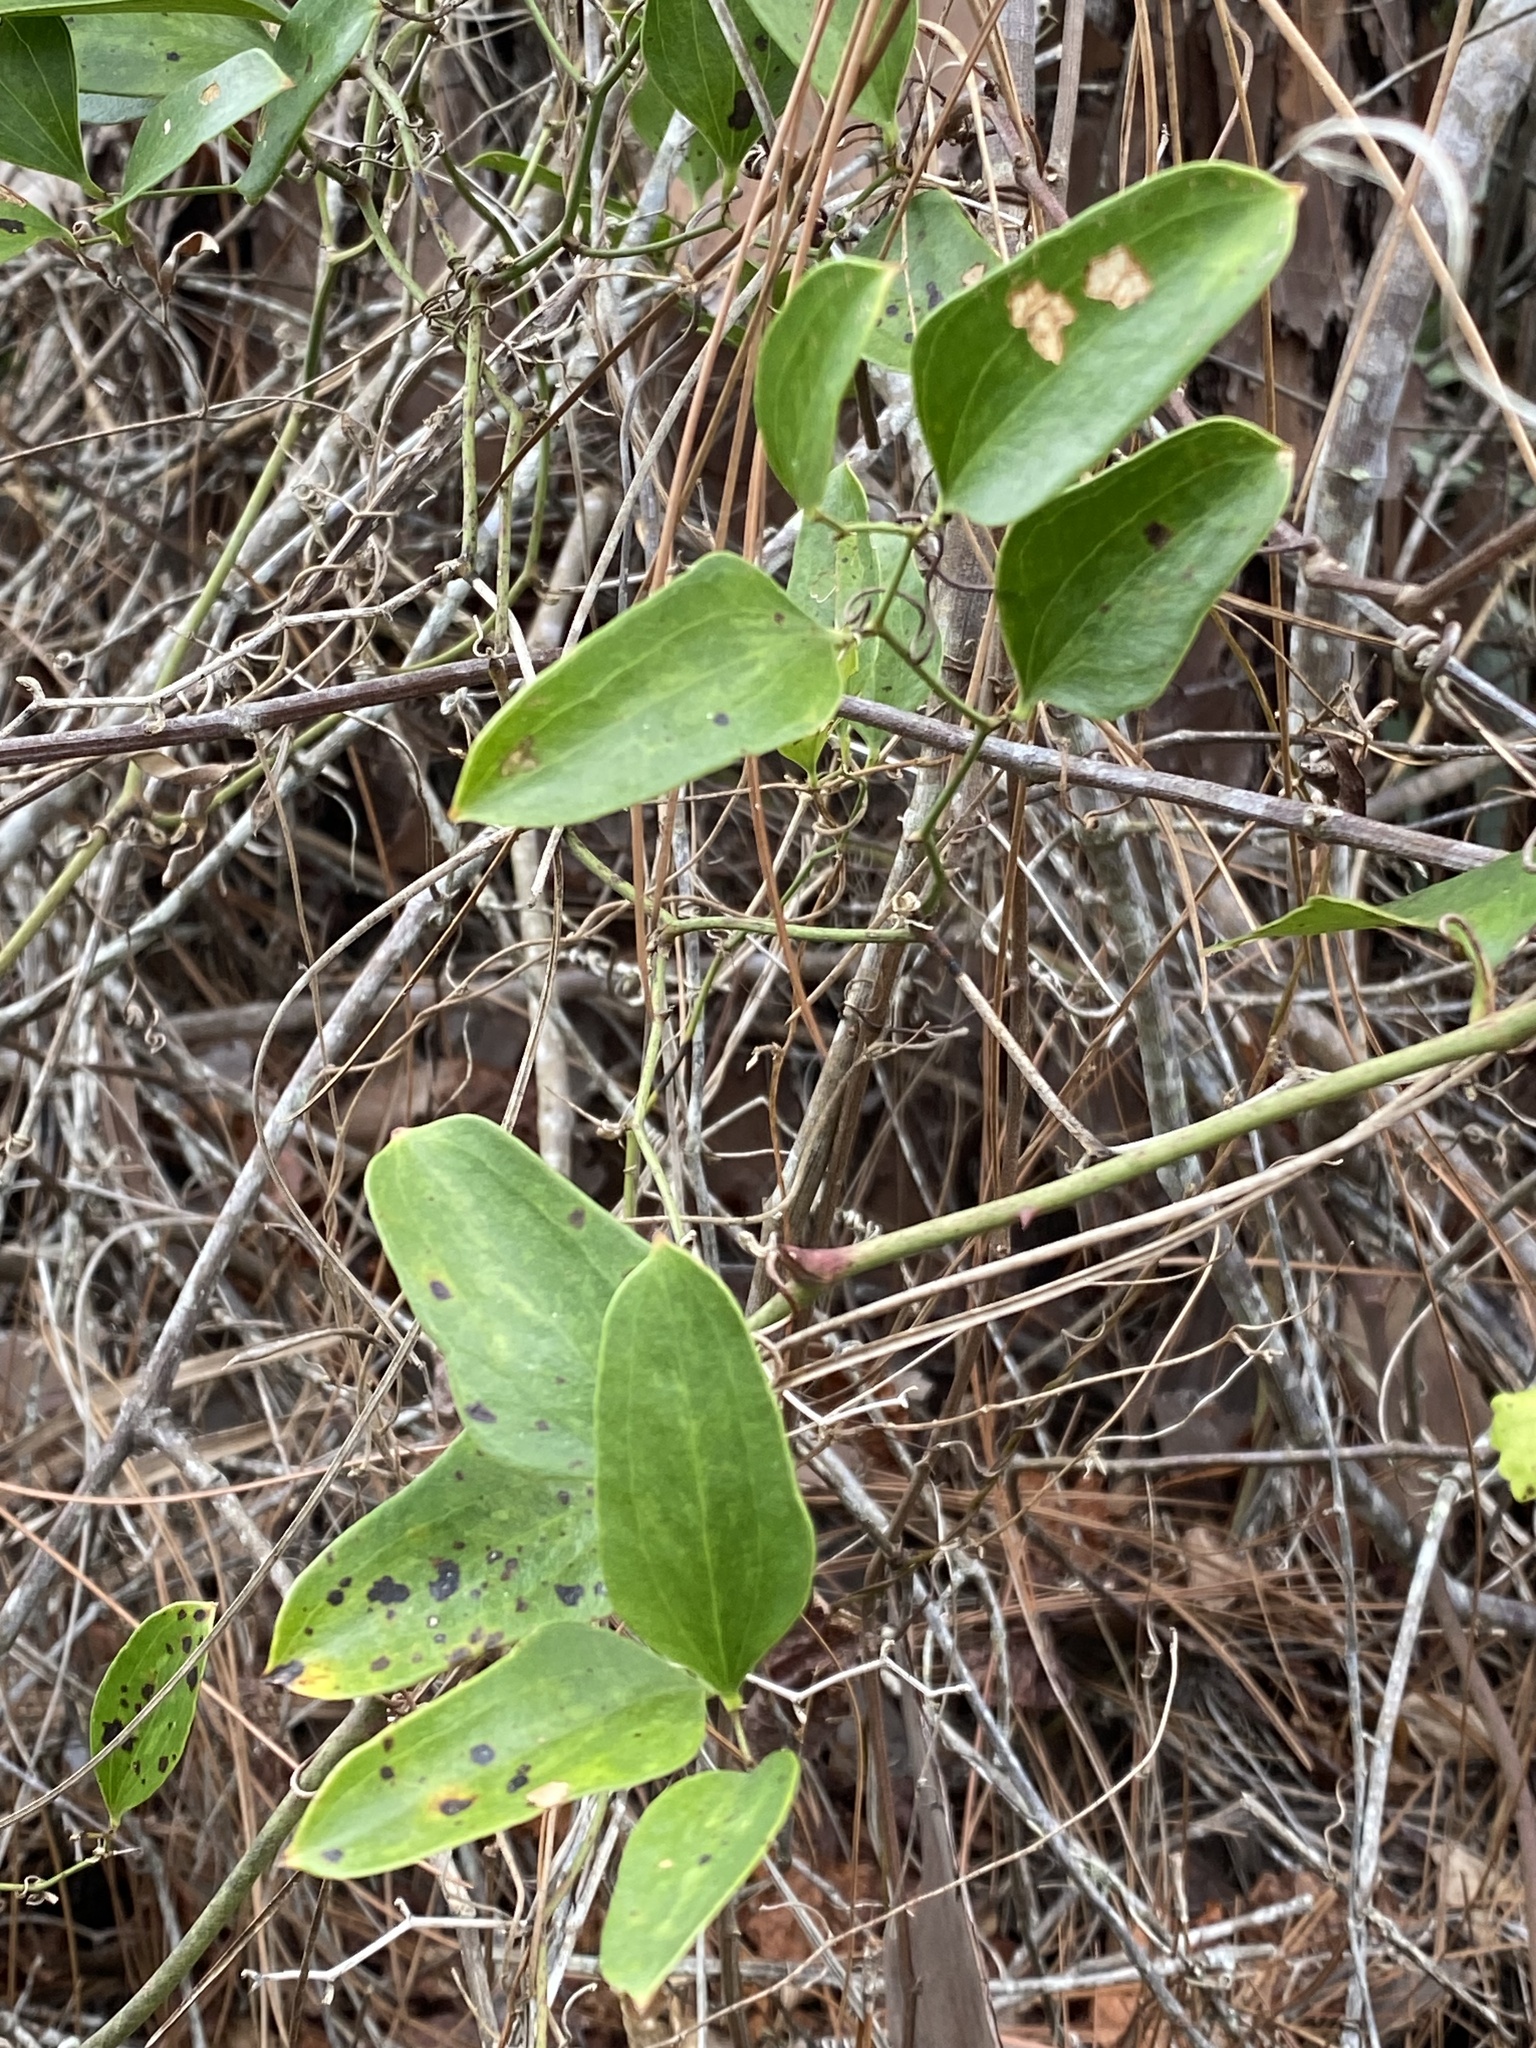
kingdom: Plantae
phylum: Tracheophyta
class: Liliopsida
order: Liliales
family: Smilacaceae
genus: Smilax
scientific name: Smilax auriculata
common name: Wild bamboo
